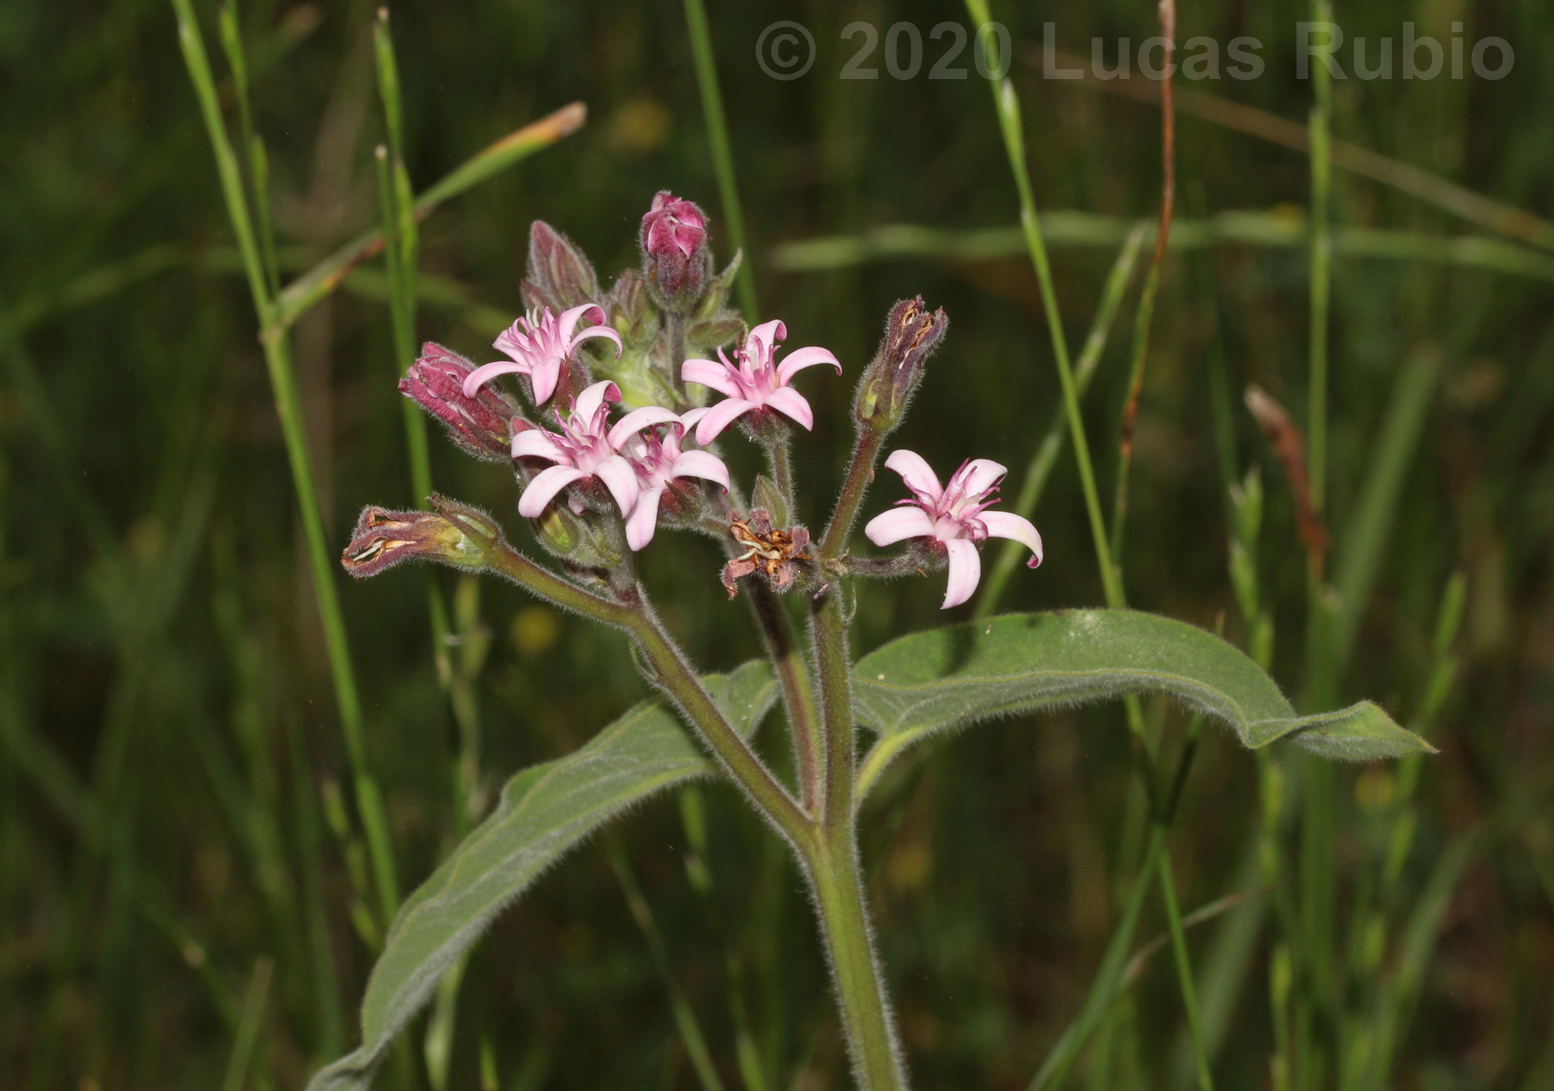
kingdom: Plantae
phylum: Tracheophyta
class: Magnoliopsida
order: Gentianales
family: Apocynaceae
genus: Oxypetalum
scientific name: Oxypetalum solanoides
